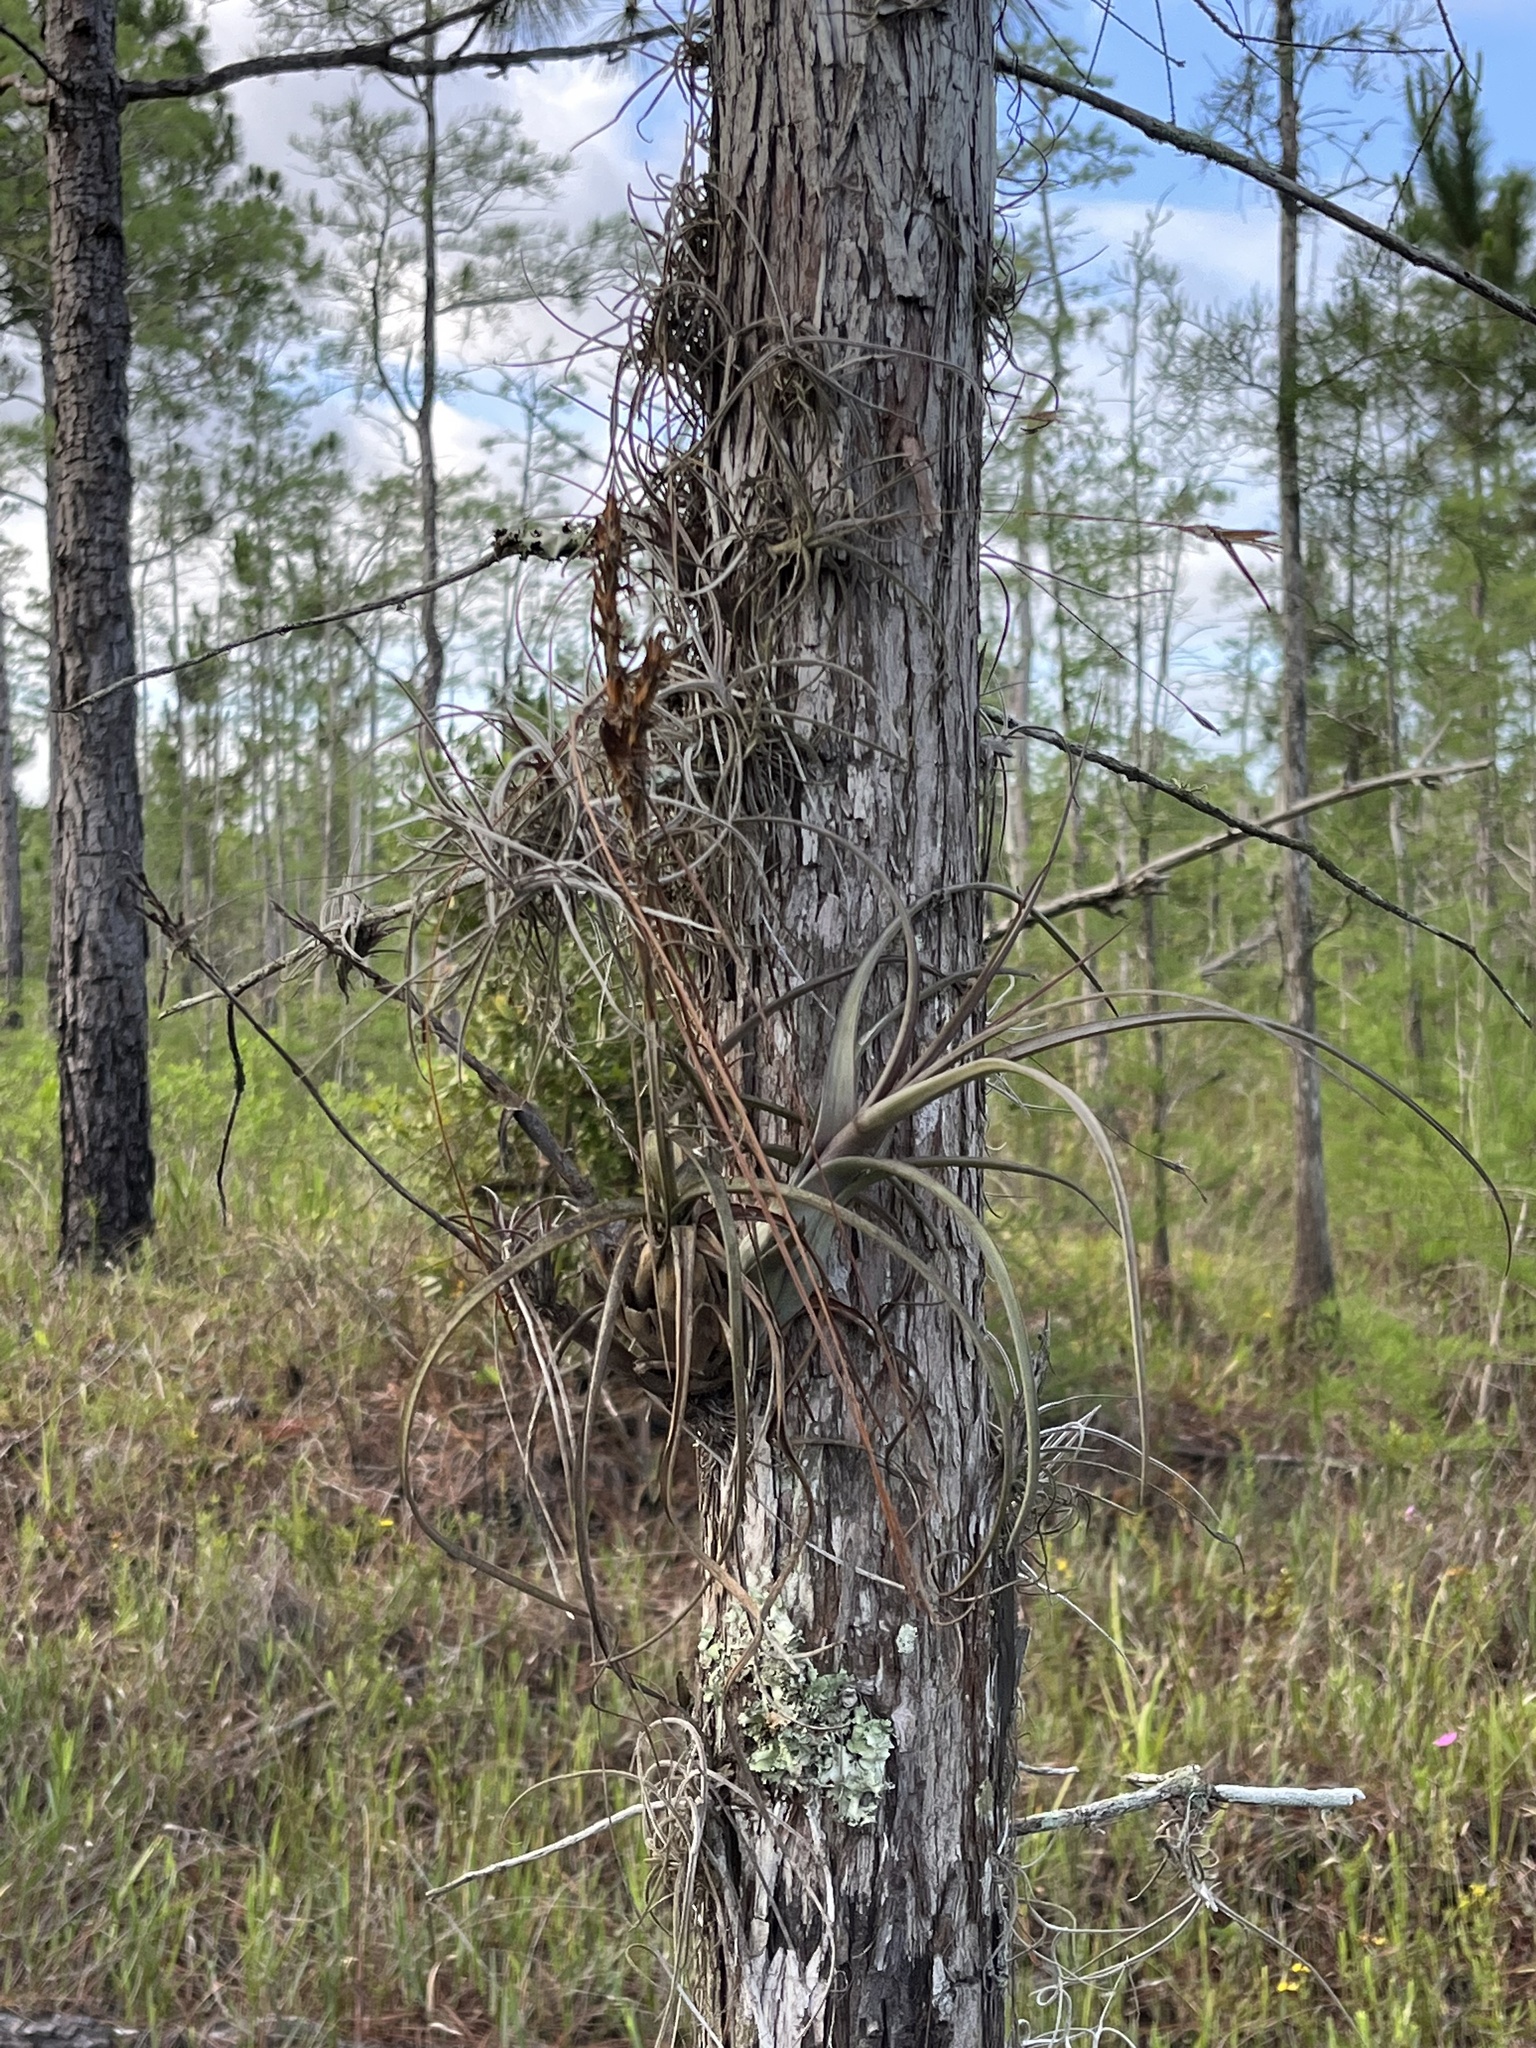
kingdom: Plantae
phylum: Tracheophyta
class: Liliopsida
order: Poales
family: Bromeliaceae
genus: Tillandsia
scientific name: Tillandsia balbisiana
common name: Northern needleleaf
